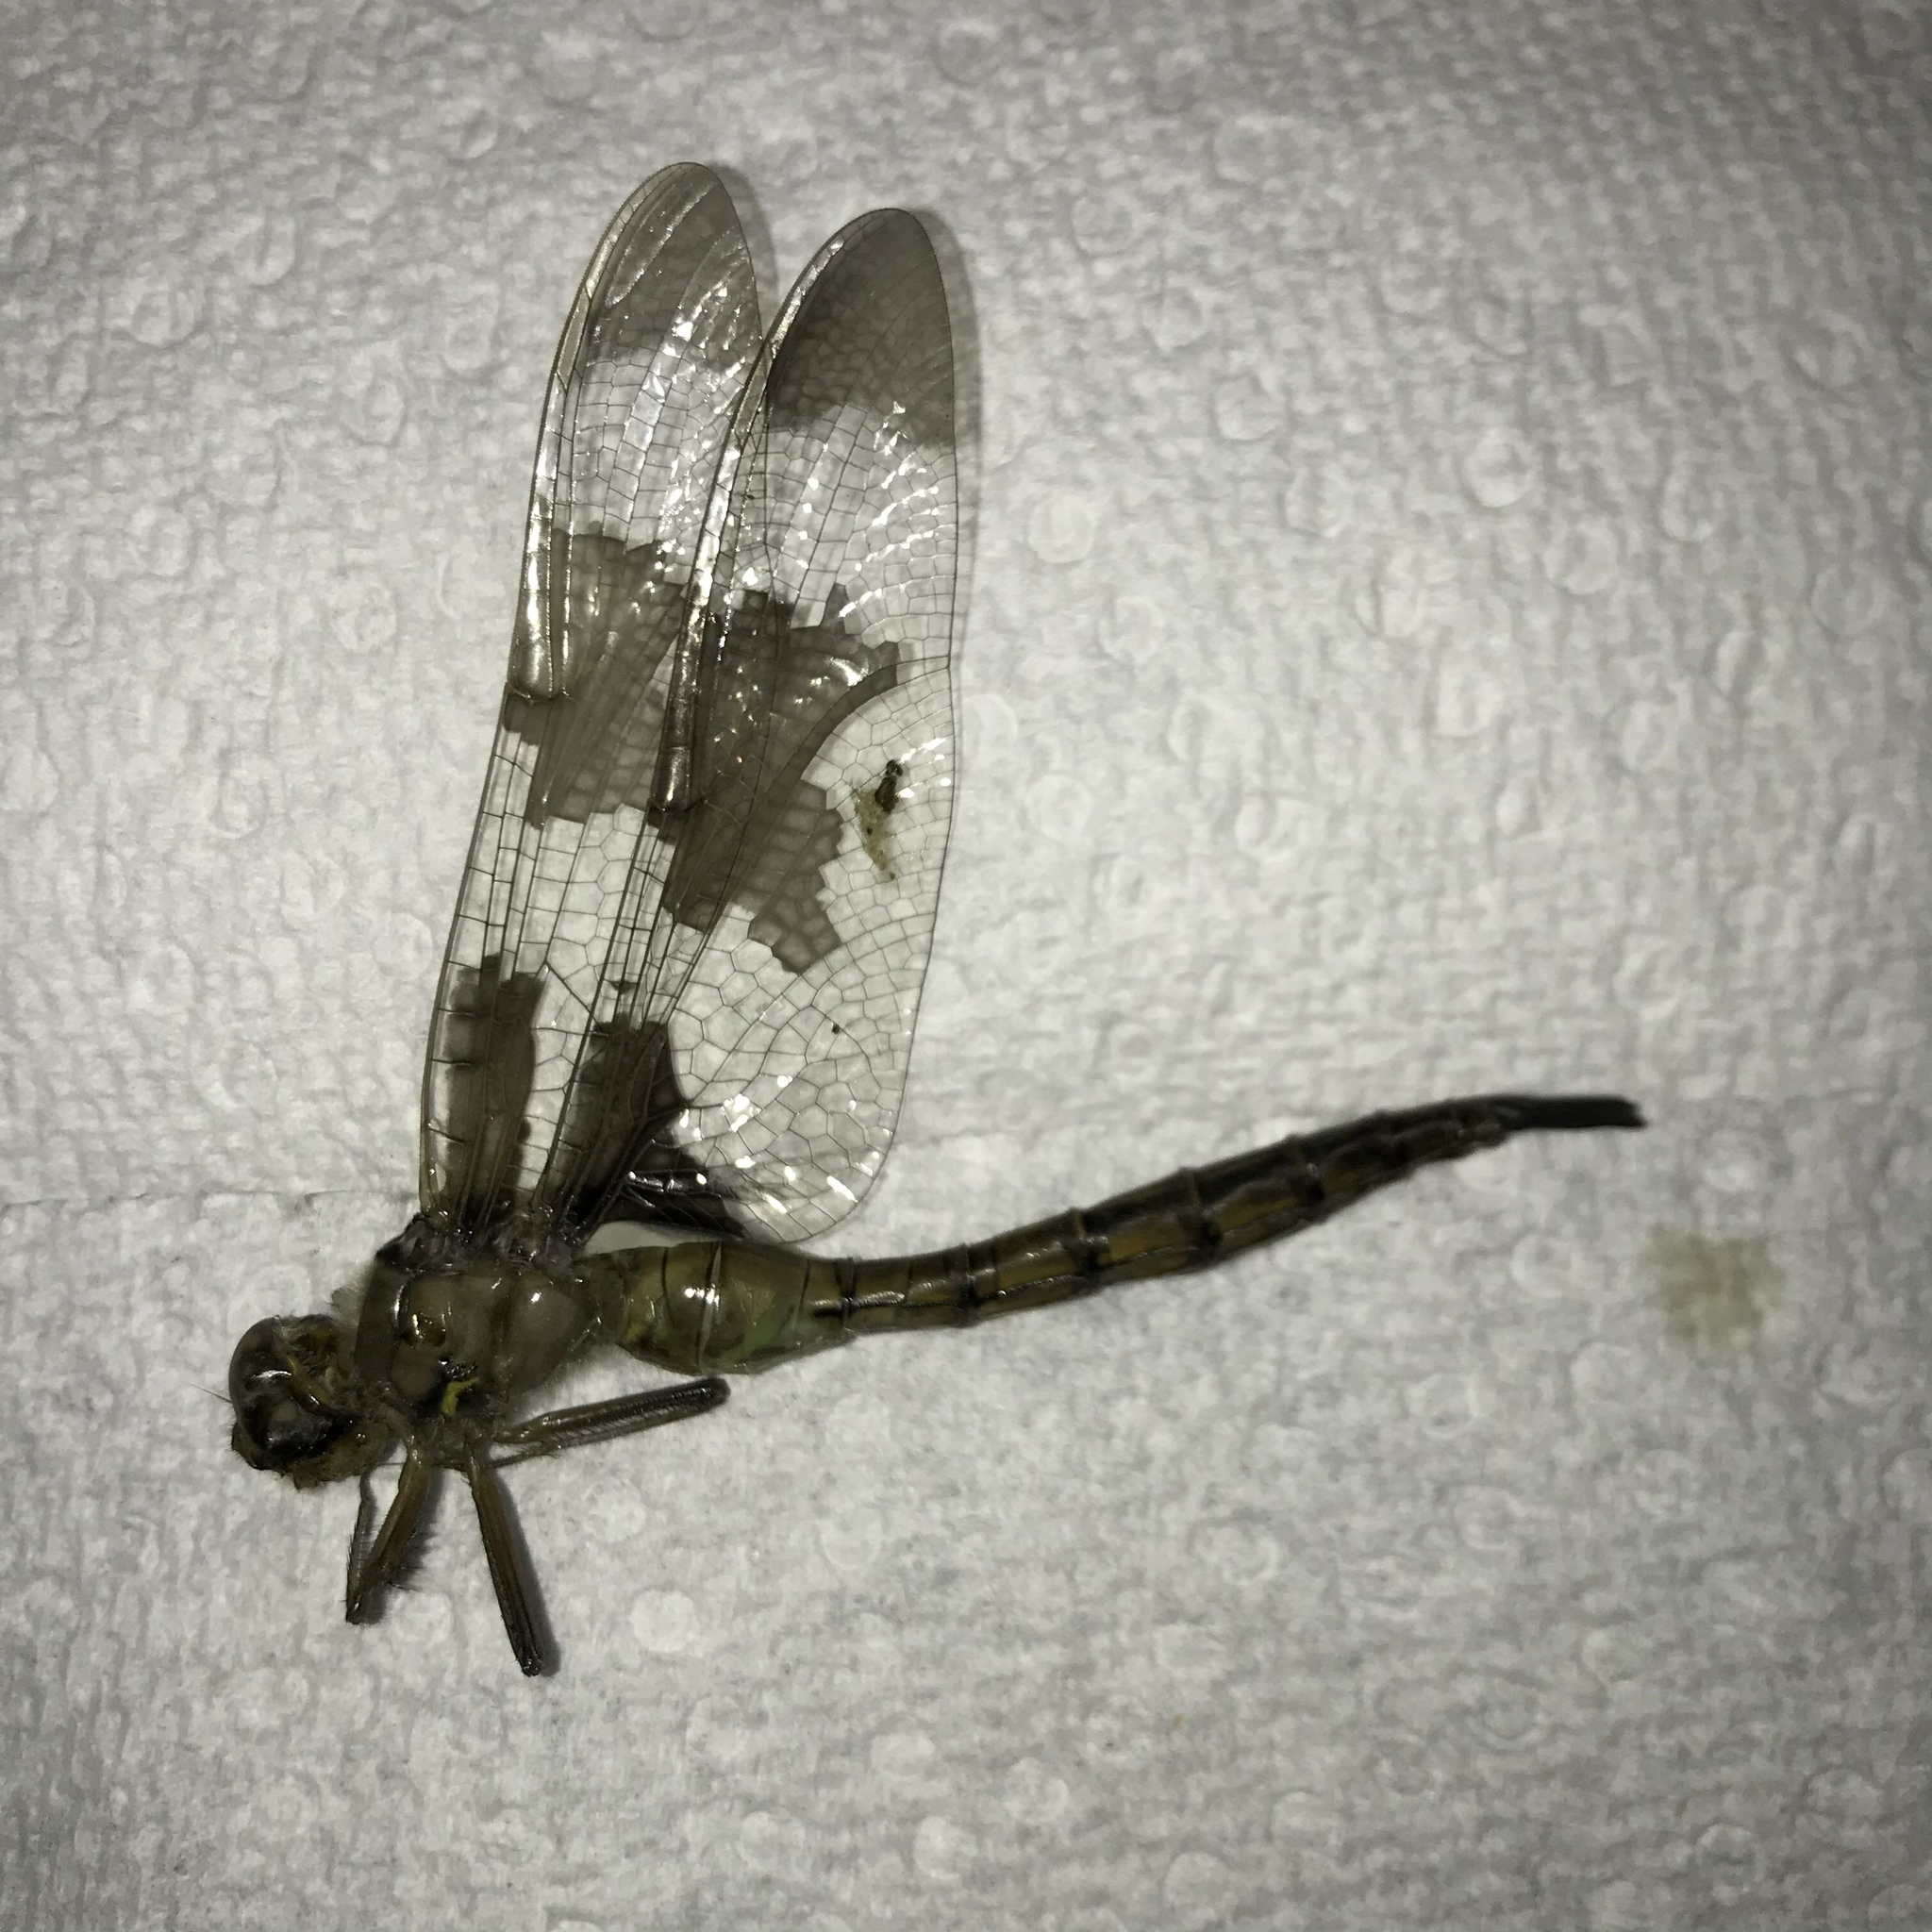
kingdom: Animalia
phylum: Arthropoda
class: Insecta
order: Odonata
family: Corduliidae
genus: Epitheca
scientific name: Epitheca princeps
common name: Prince baskettail
